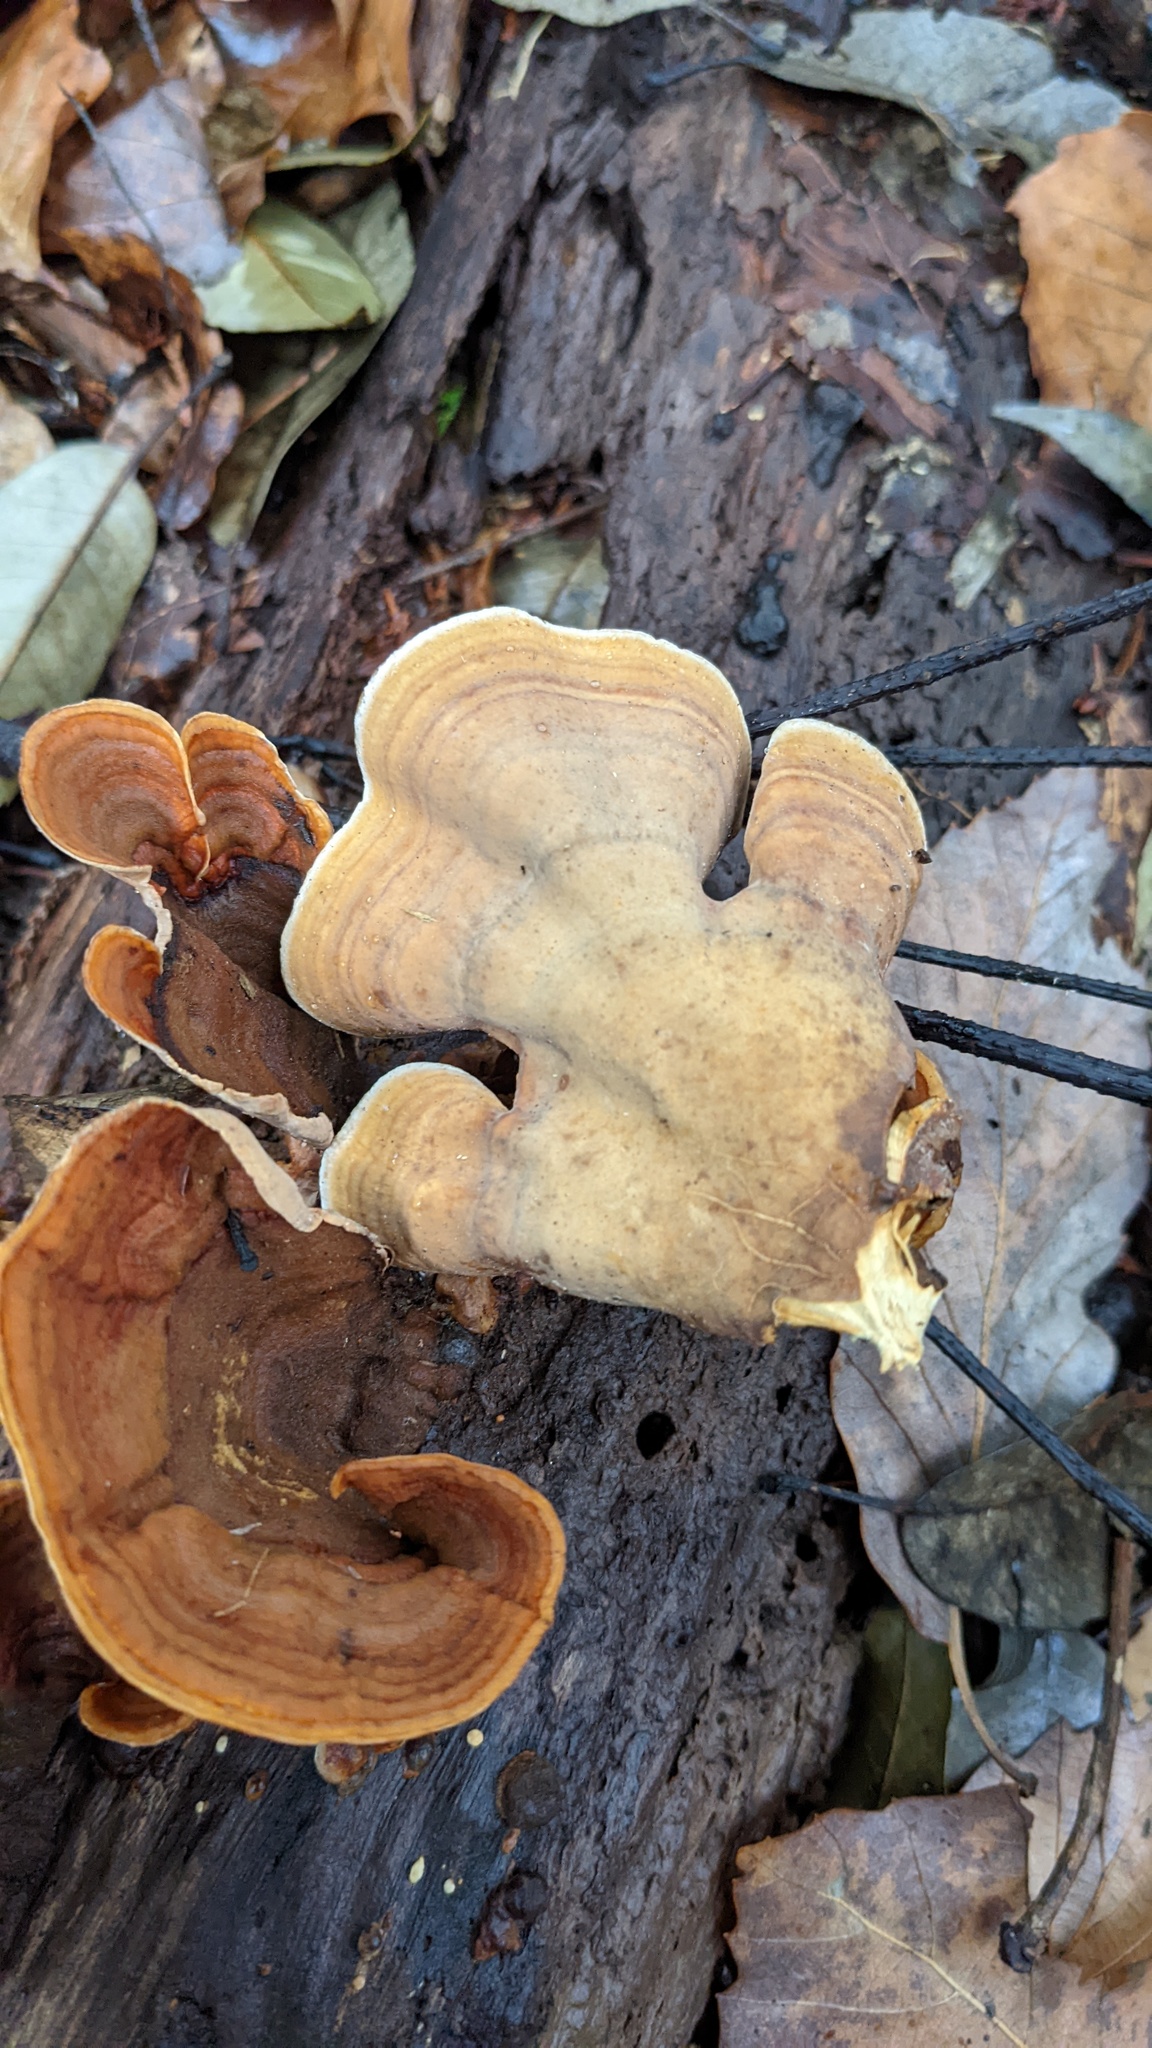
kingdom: Fungi
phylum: Basidiomycota
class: Agaricomycetes
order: Russulales
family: Stereaceae
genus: Stereum
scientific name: Stereum ostrea
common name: False turkeytail
